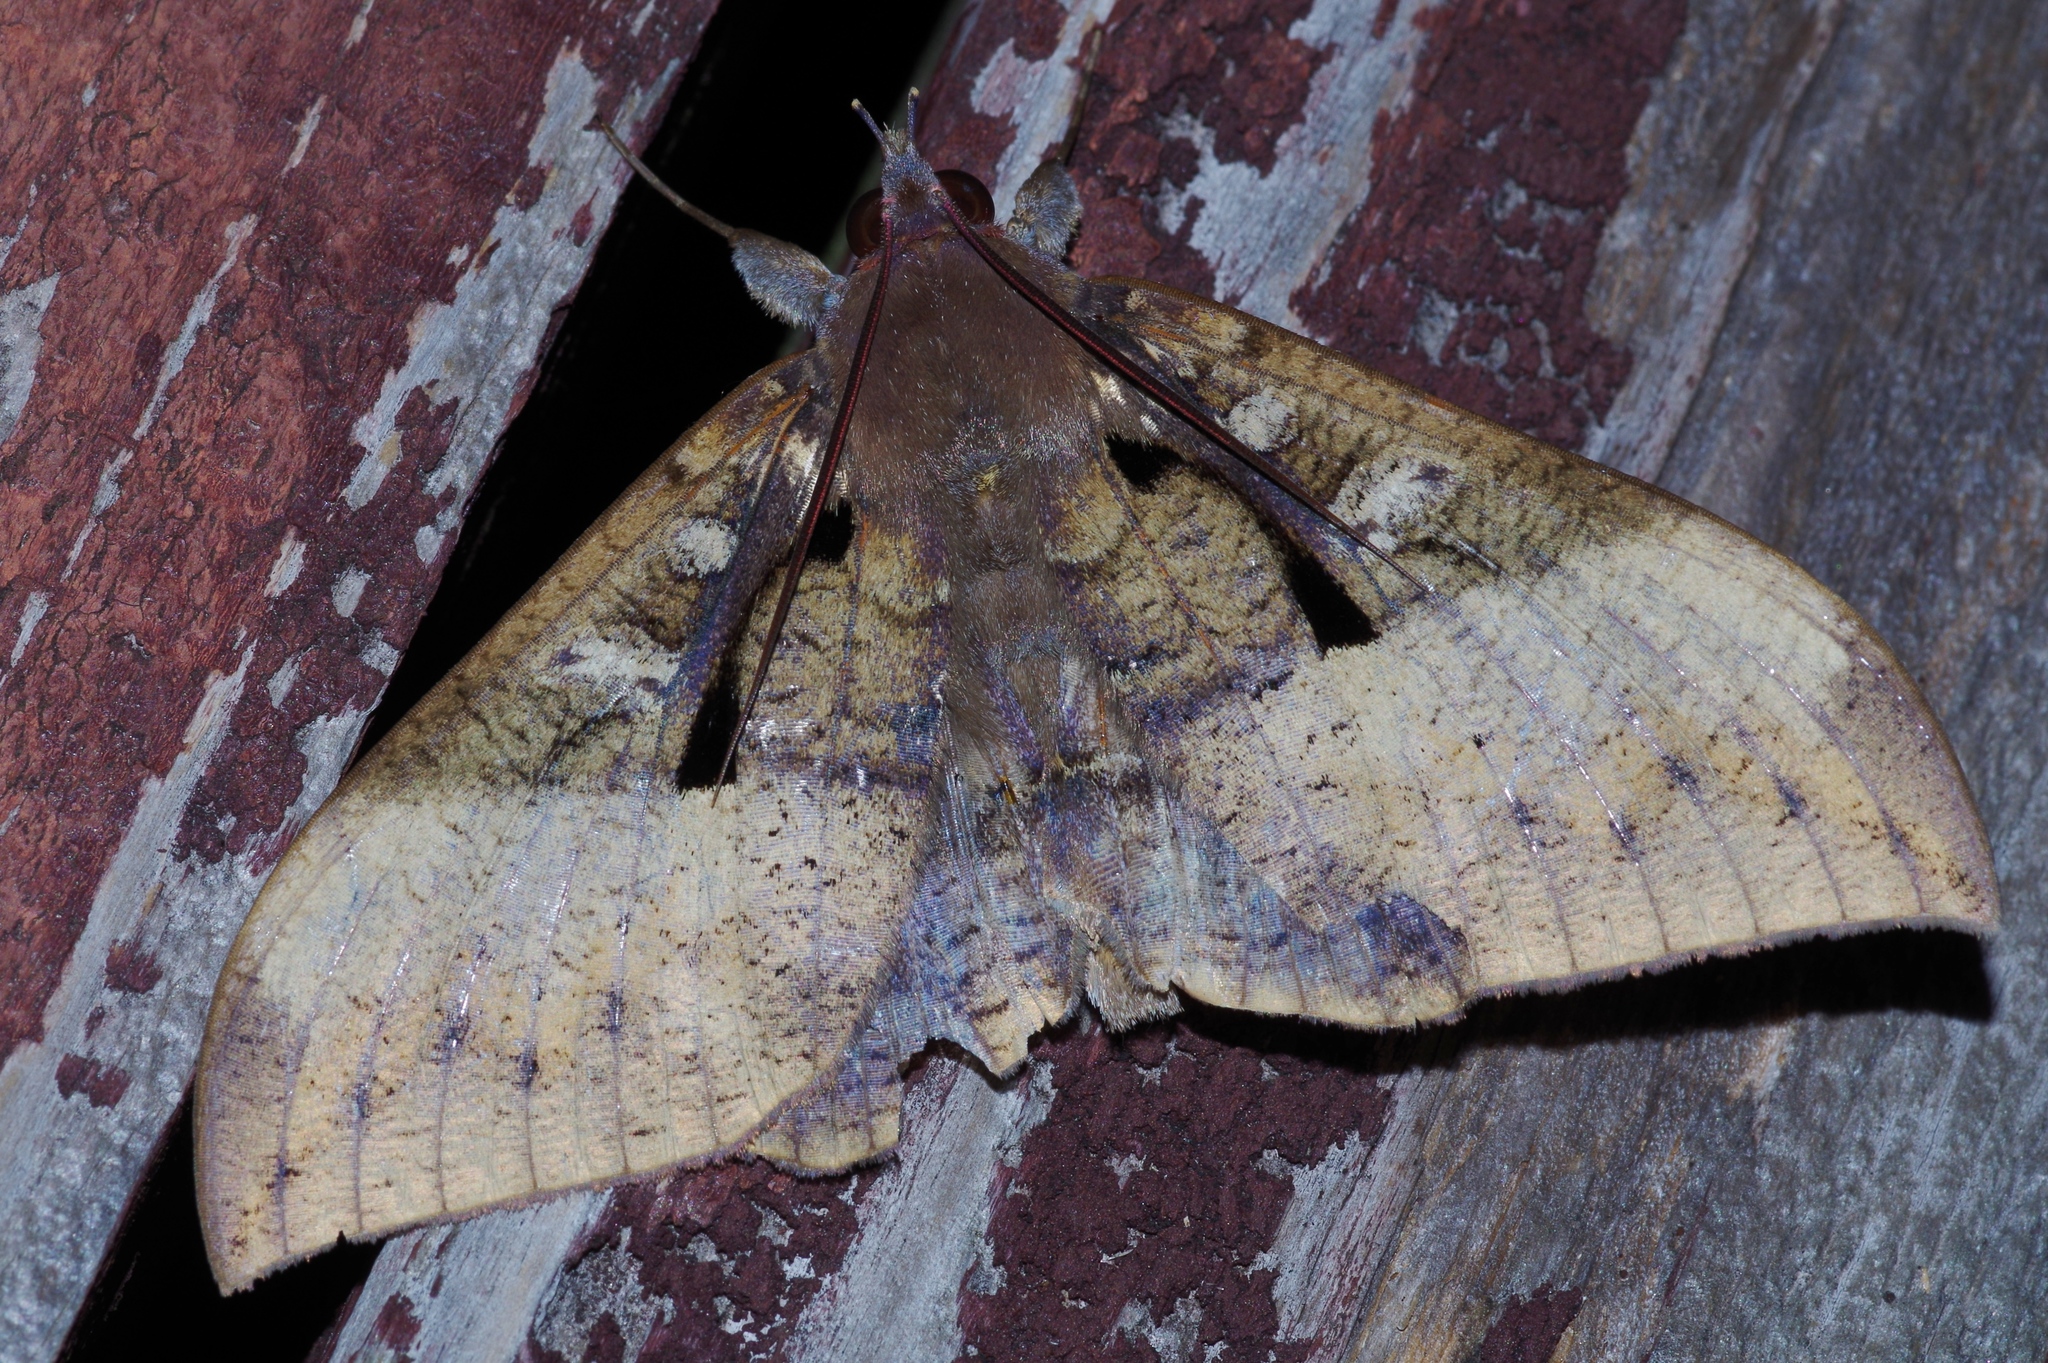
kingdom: Animalia
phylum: Arthropoda
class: Insecta
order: Lepidoptera
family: Erebidae
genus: Ischyja
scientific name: Ischyja manlia
